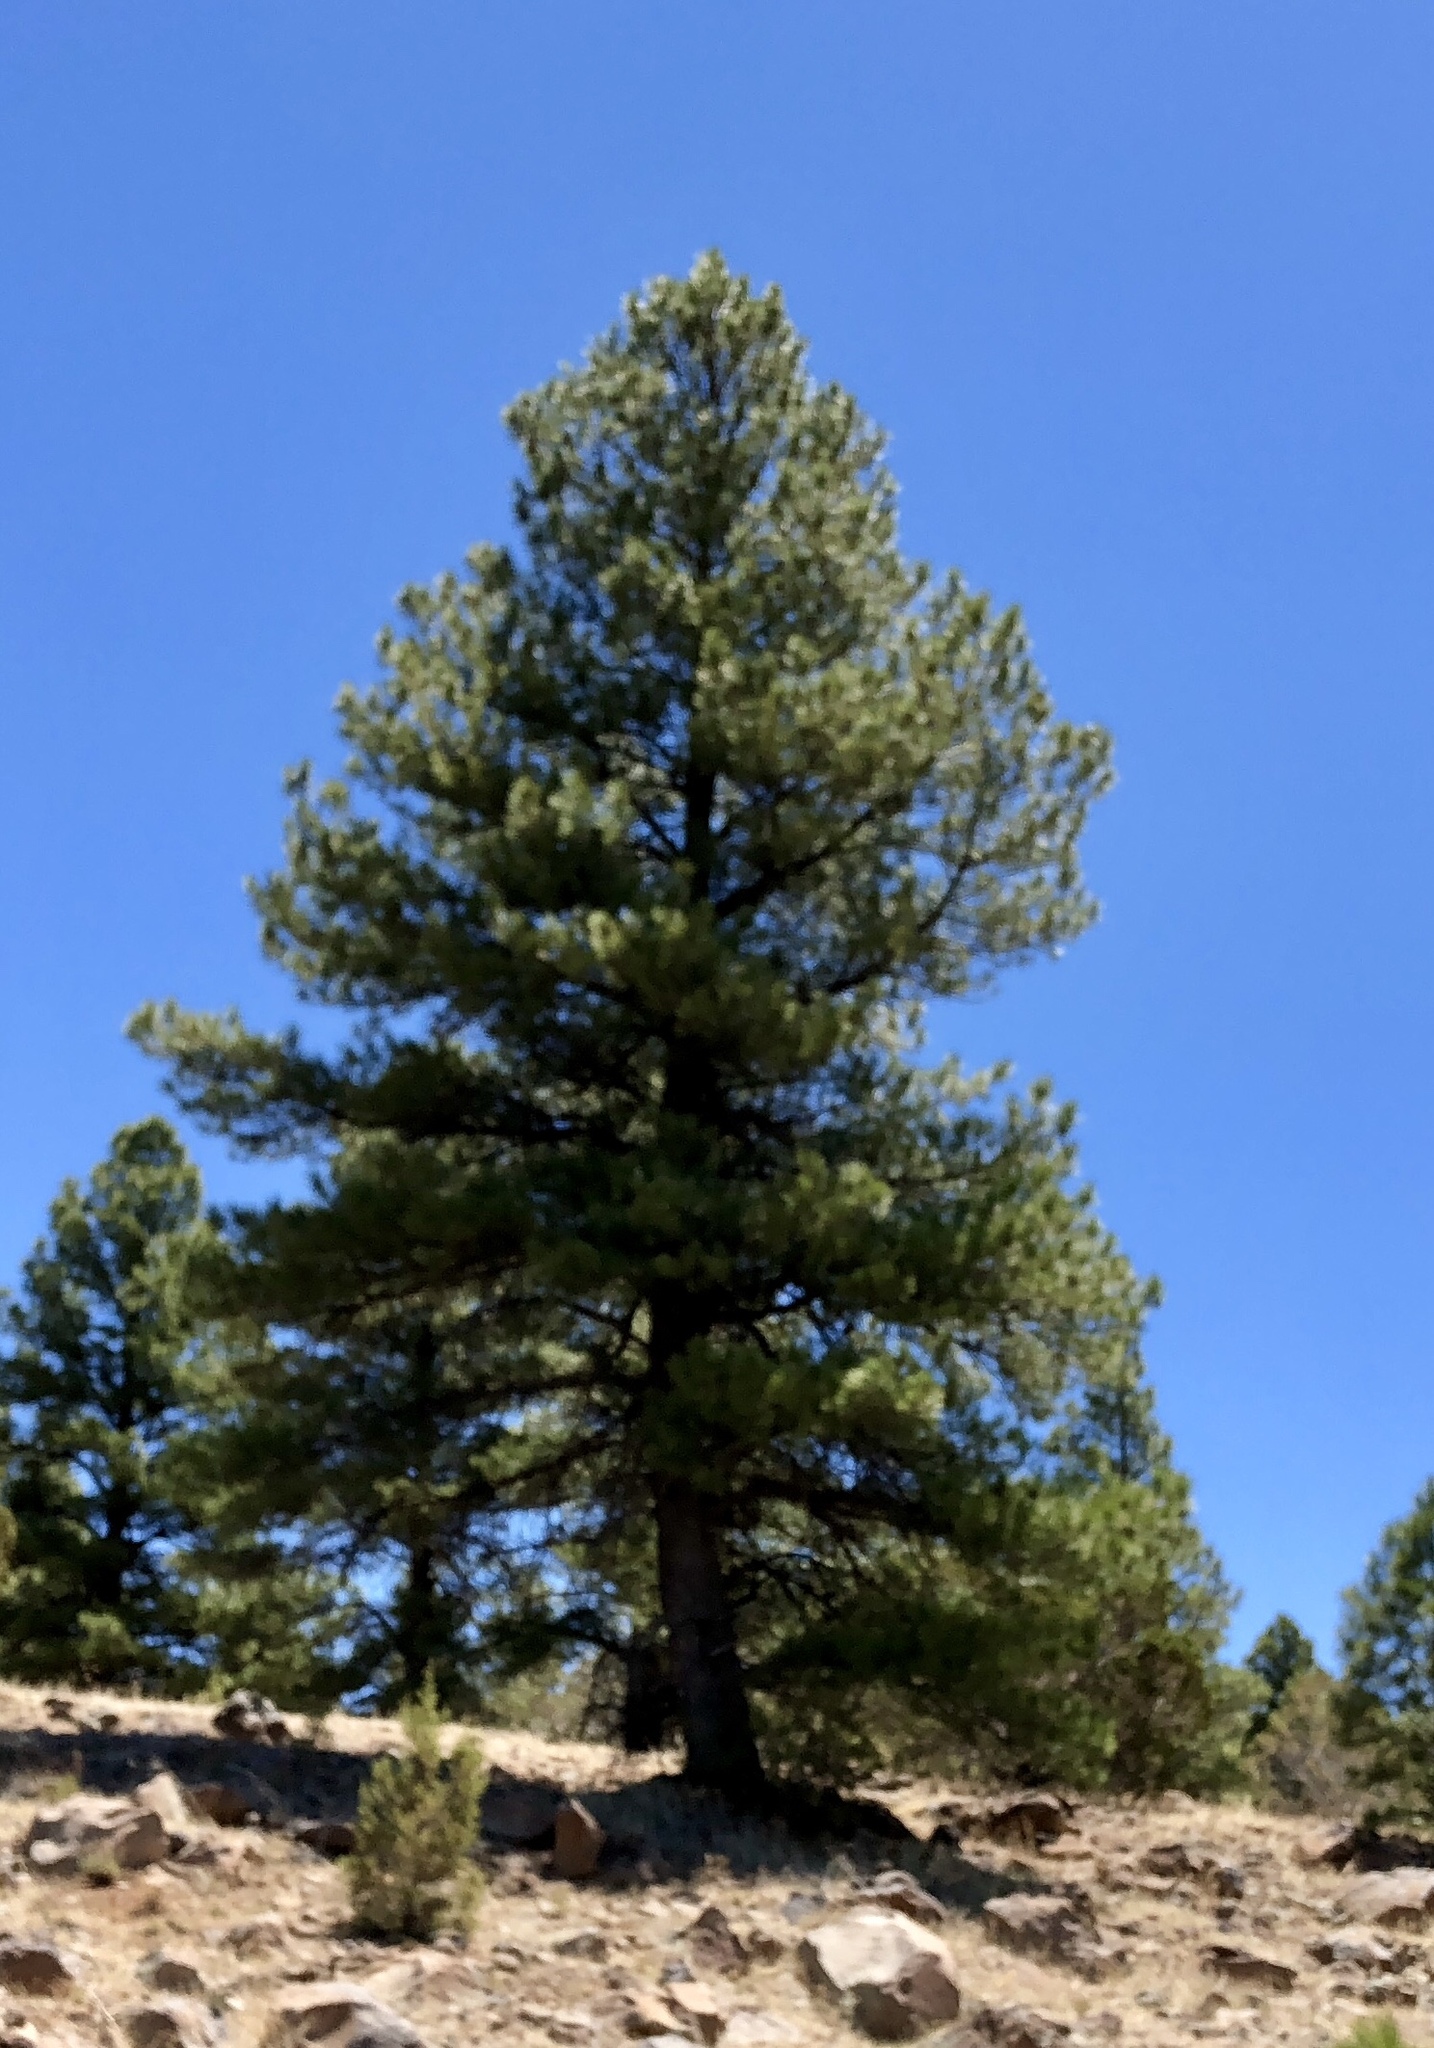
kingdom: Plantae
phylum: Tracheophyta
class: Pinopsida
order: Pinales
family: Pinaceae
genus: Pinus
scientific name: Pinus ponderosa
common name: Western yellow-pine
